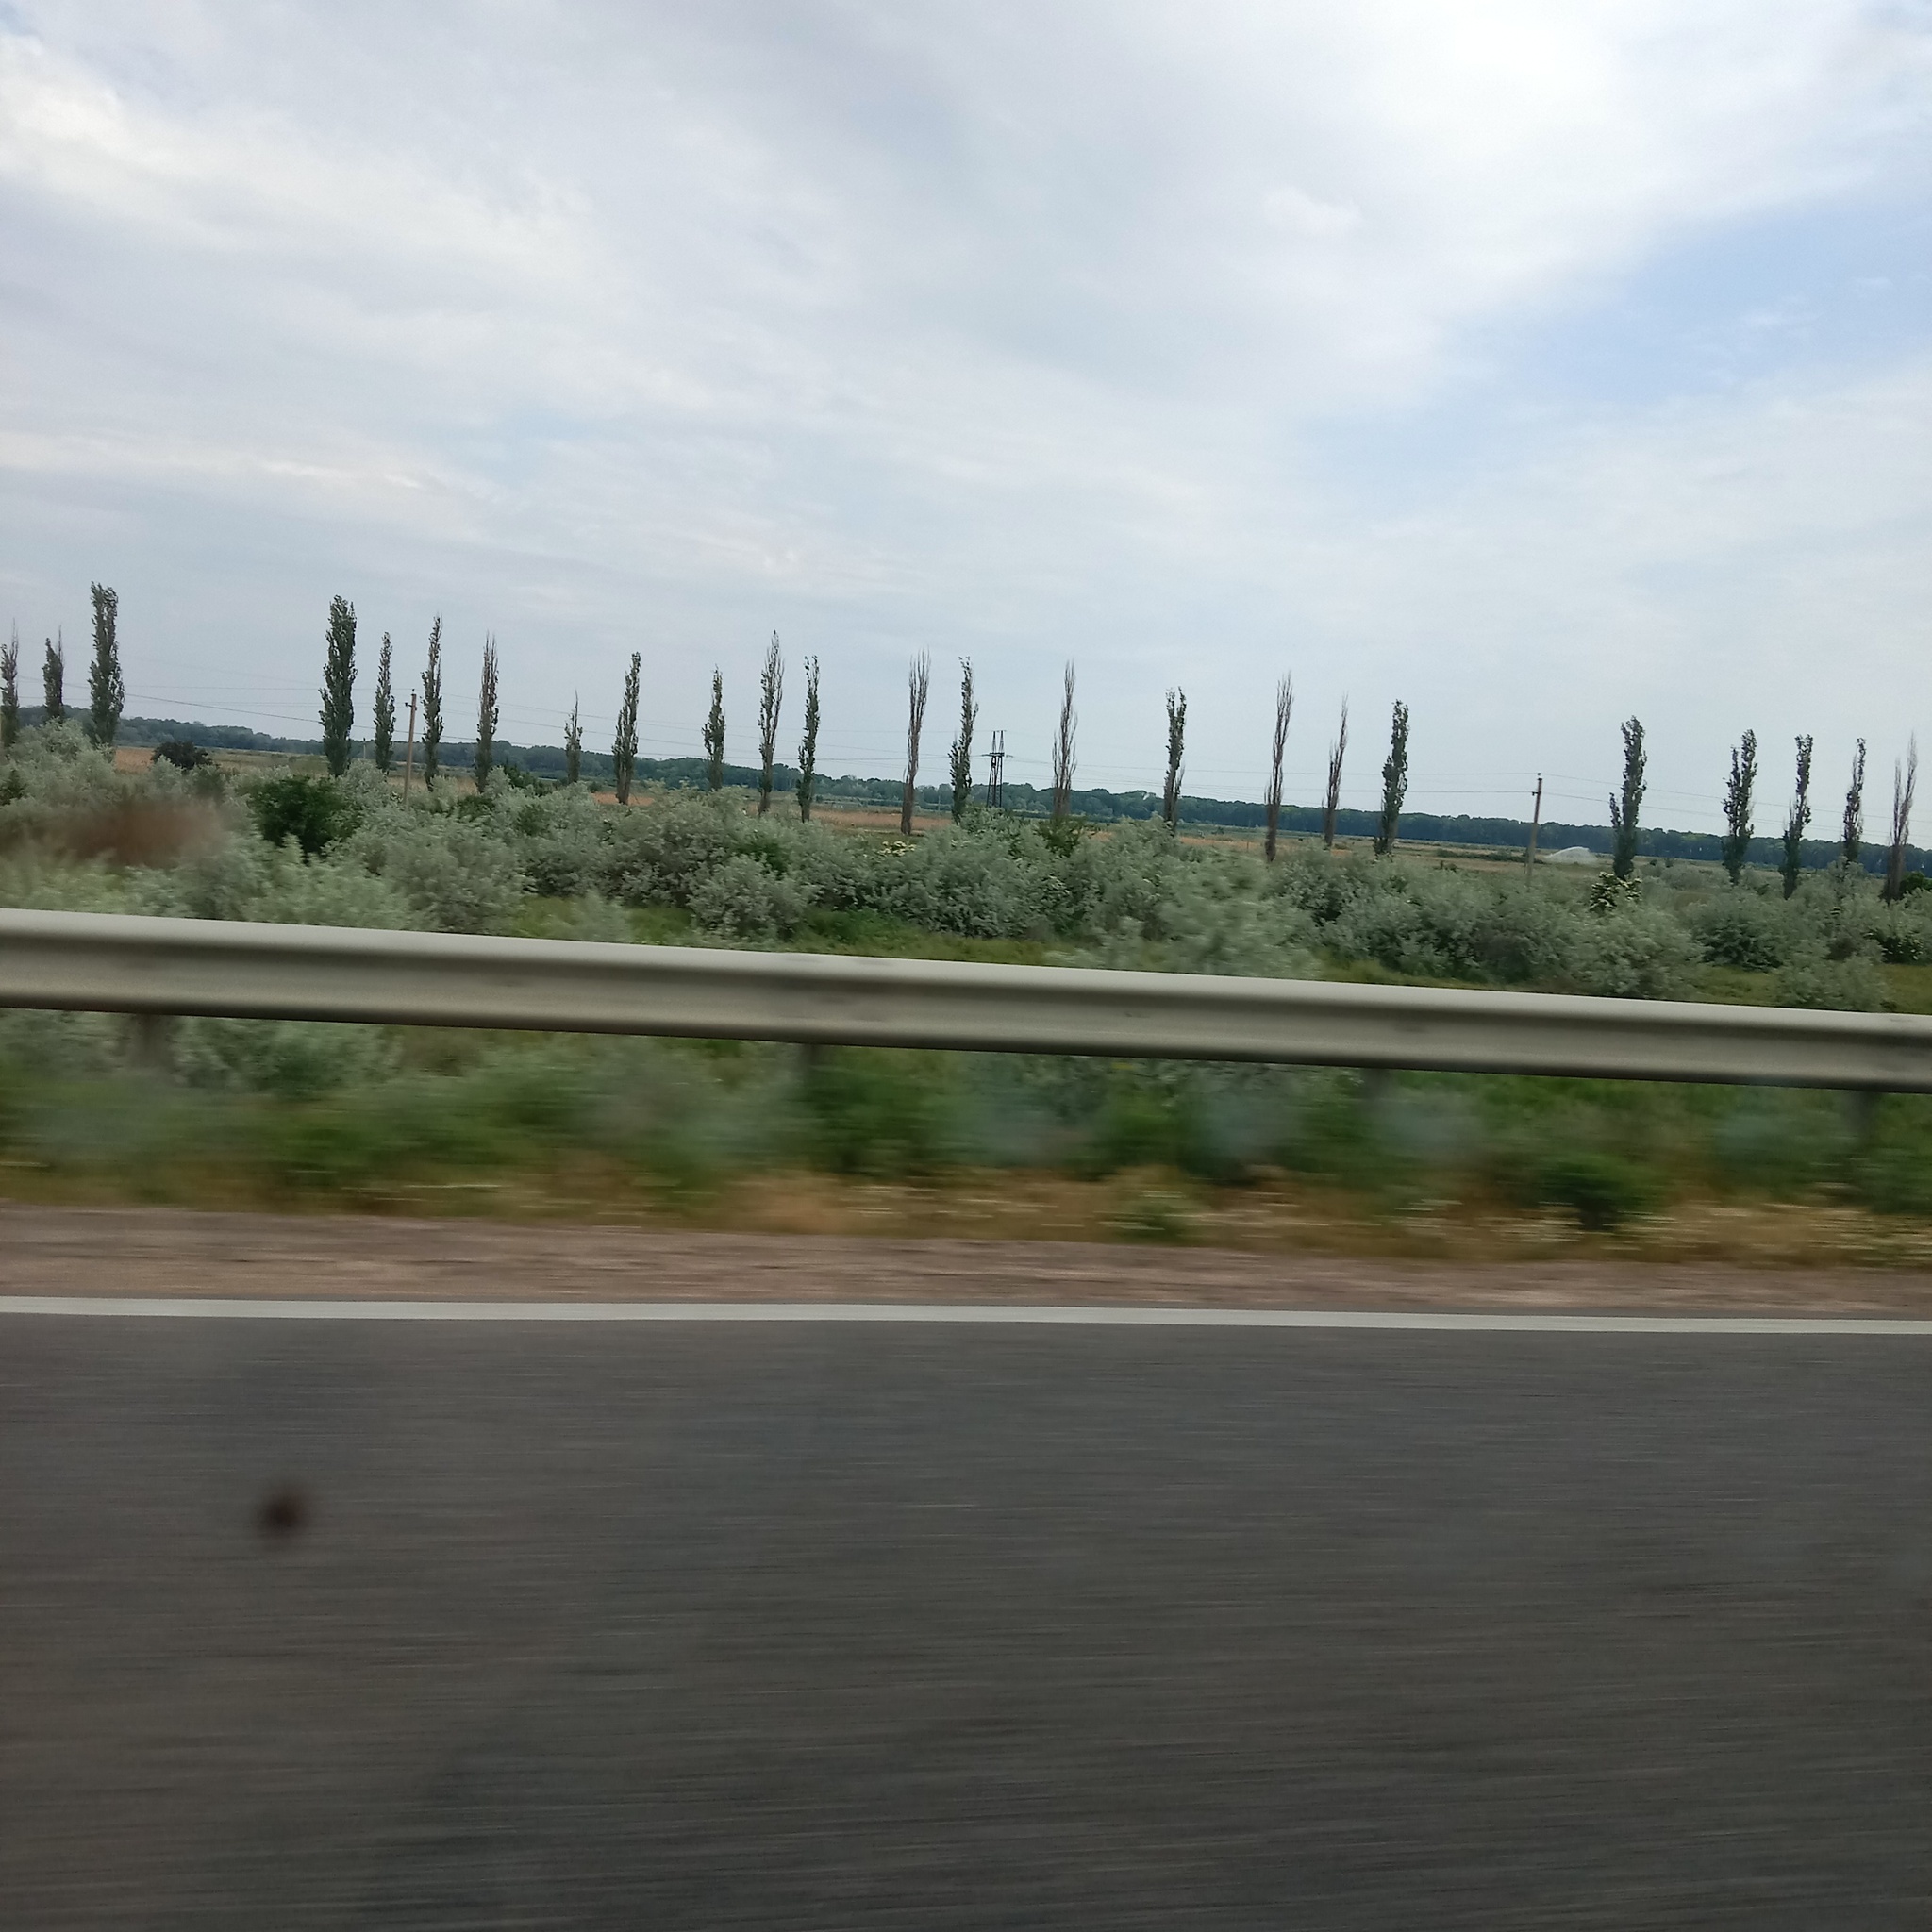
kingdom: Plantae
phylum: Tracheophyta
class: Magnoliopsida
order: Rosales
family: Elaeagnaceae
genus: Elaeagnus
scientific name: Elaeagnus angustifolia
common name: Russian olive
